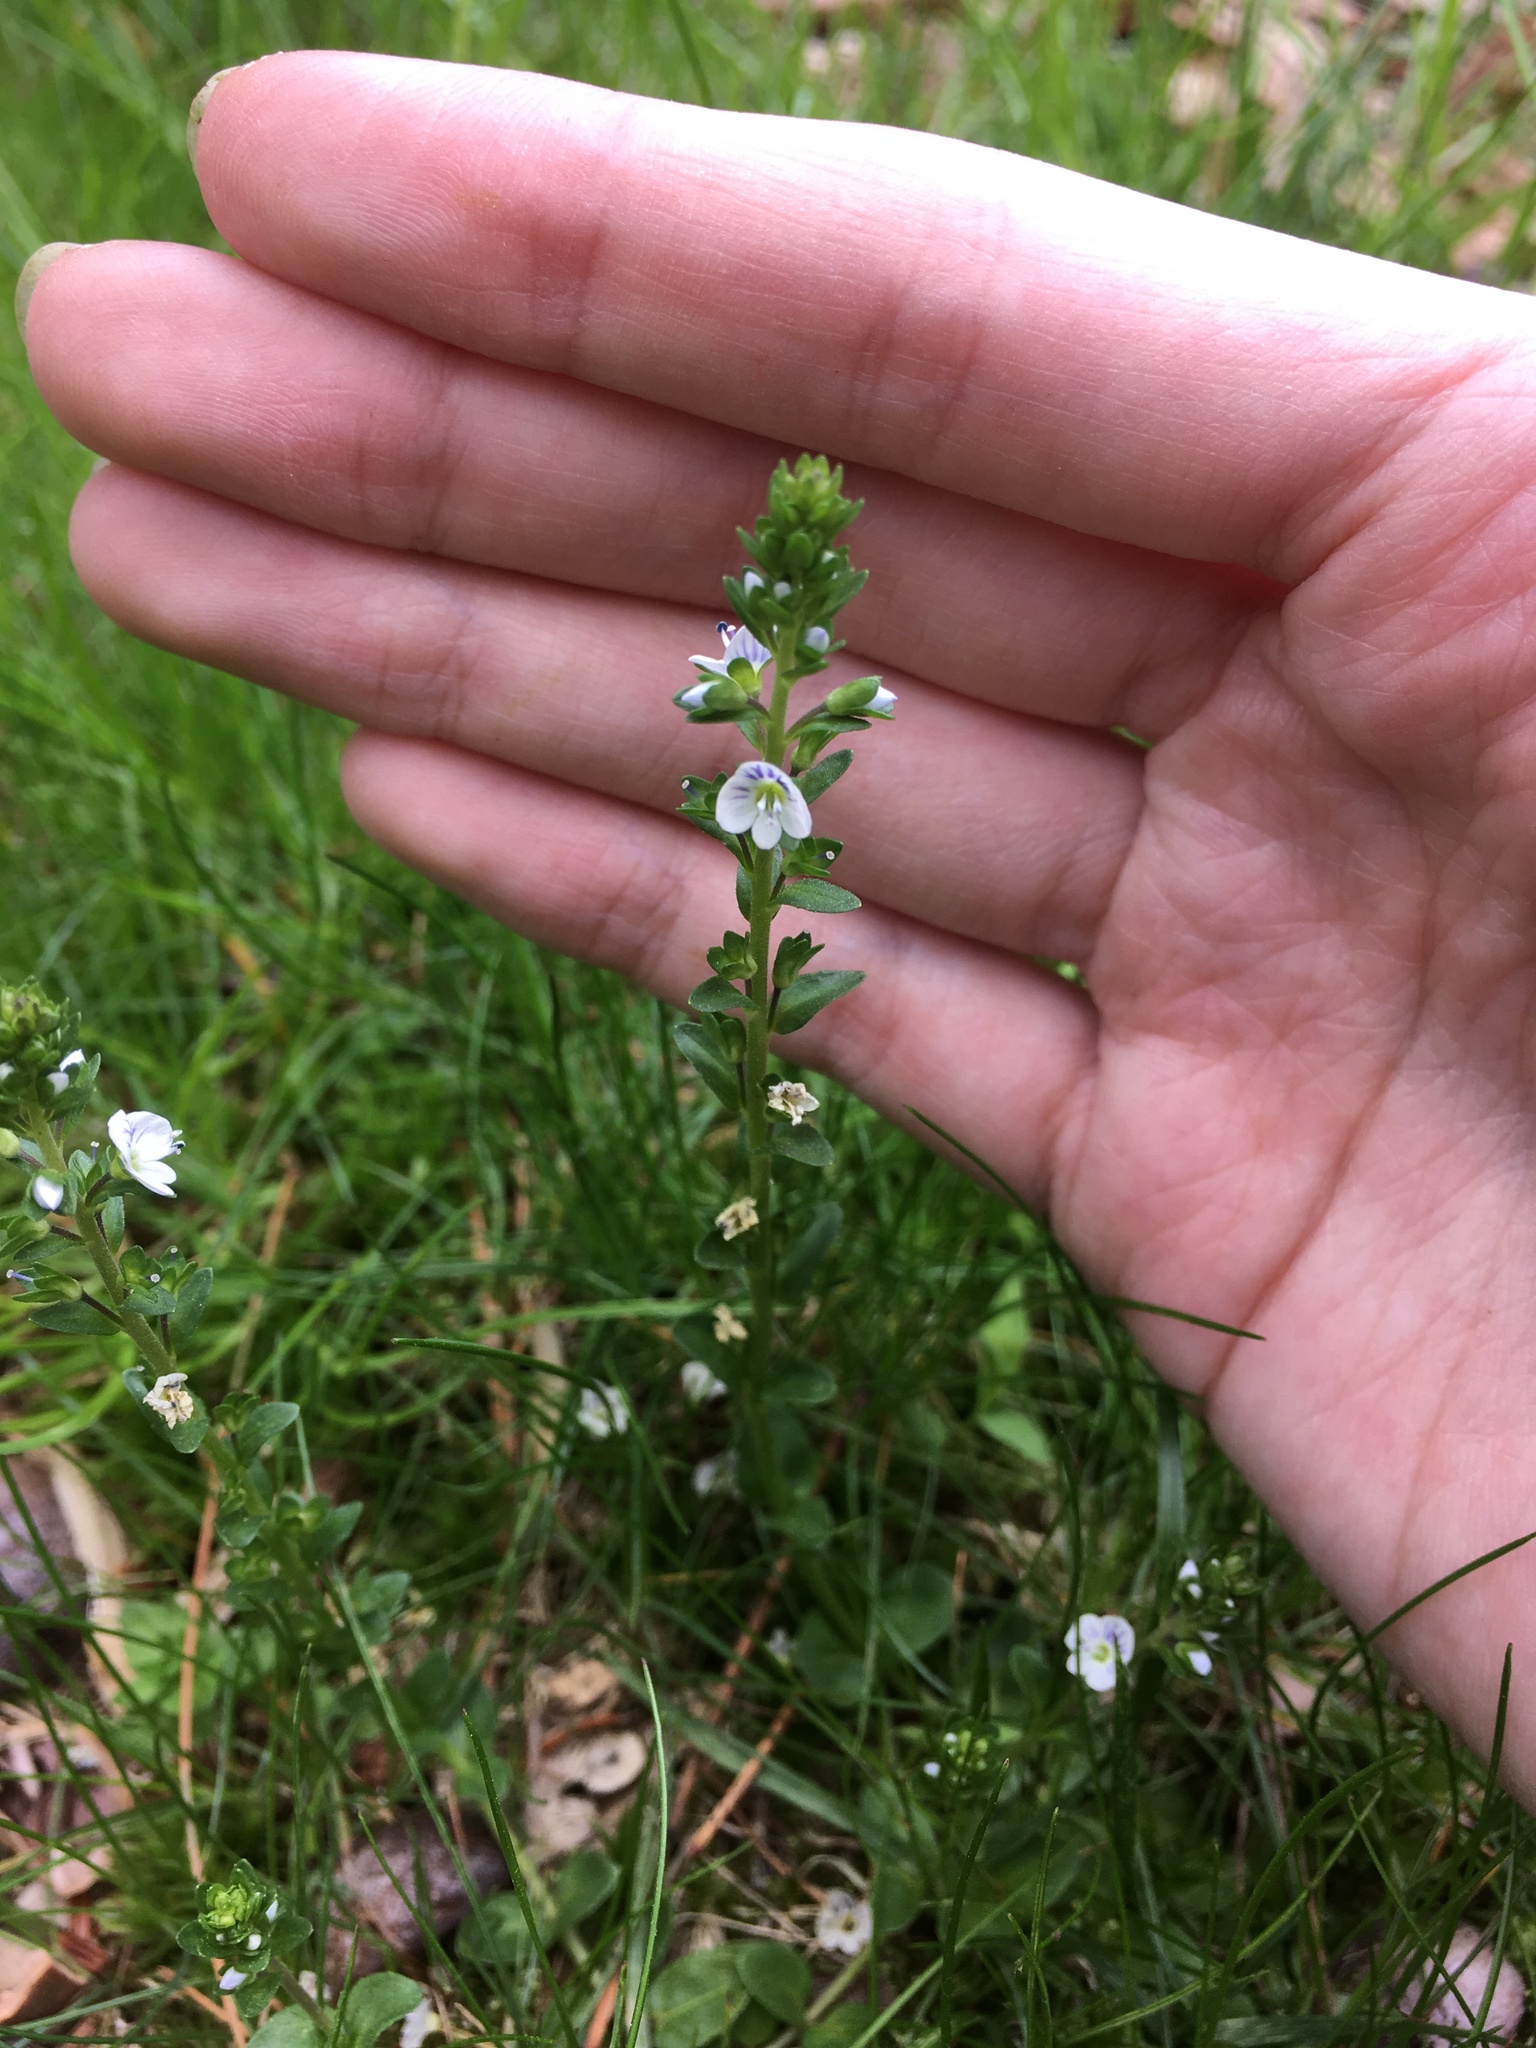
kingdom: Plantae
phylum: Tracheophyta
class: Magnoliopsida
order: Lamiales
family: Plantaginaceae
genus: Veronica
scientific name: Veronica serpyllifolia
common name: Thyme-leaved speedwell
